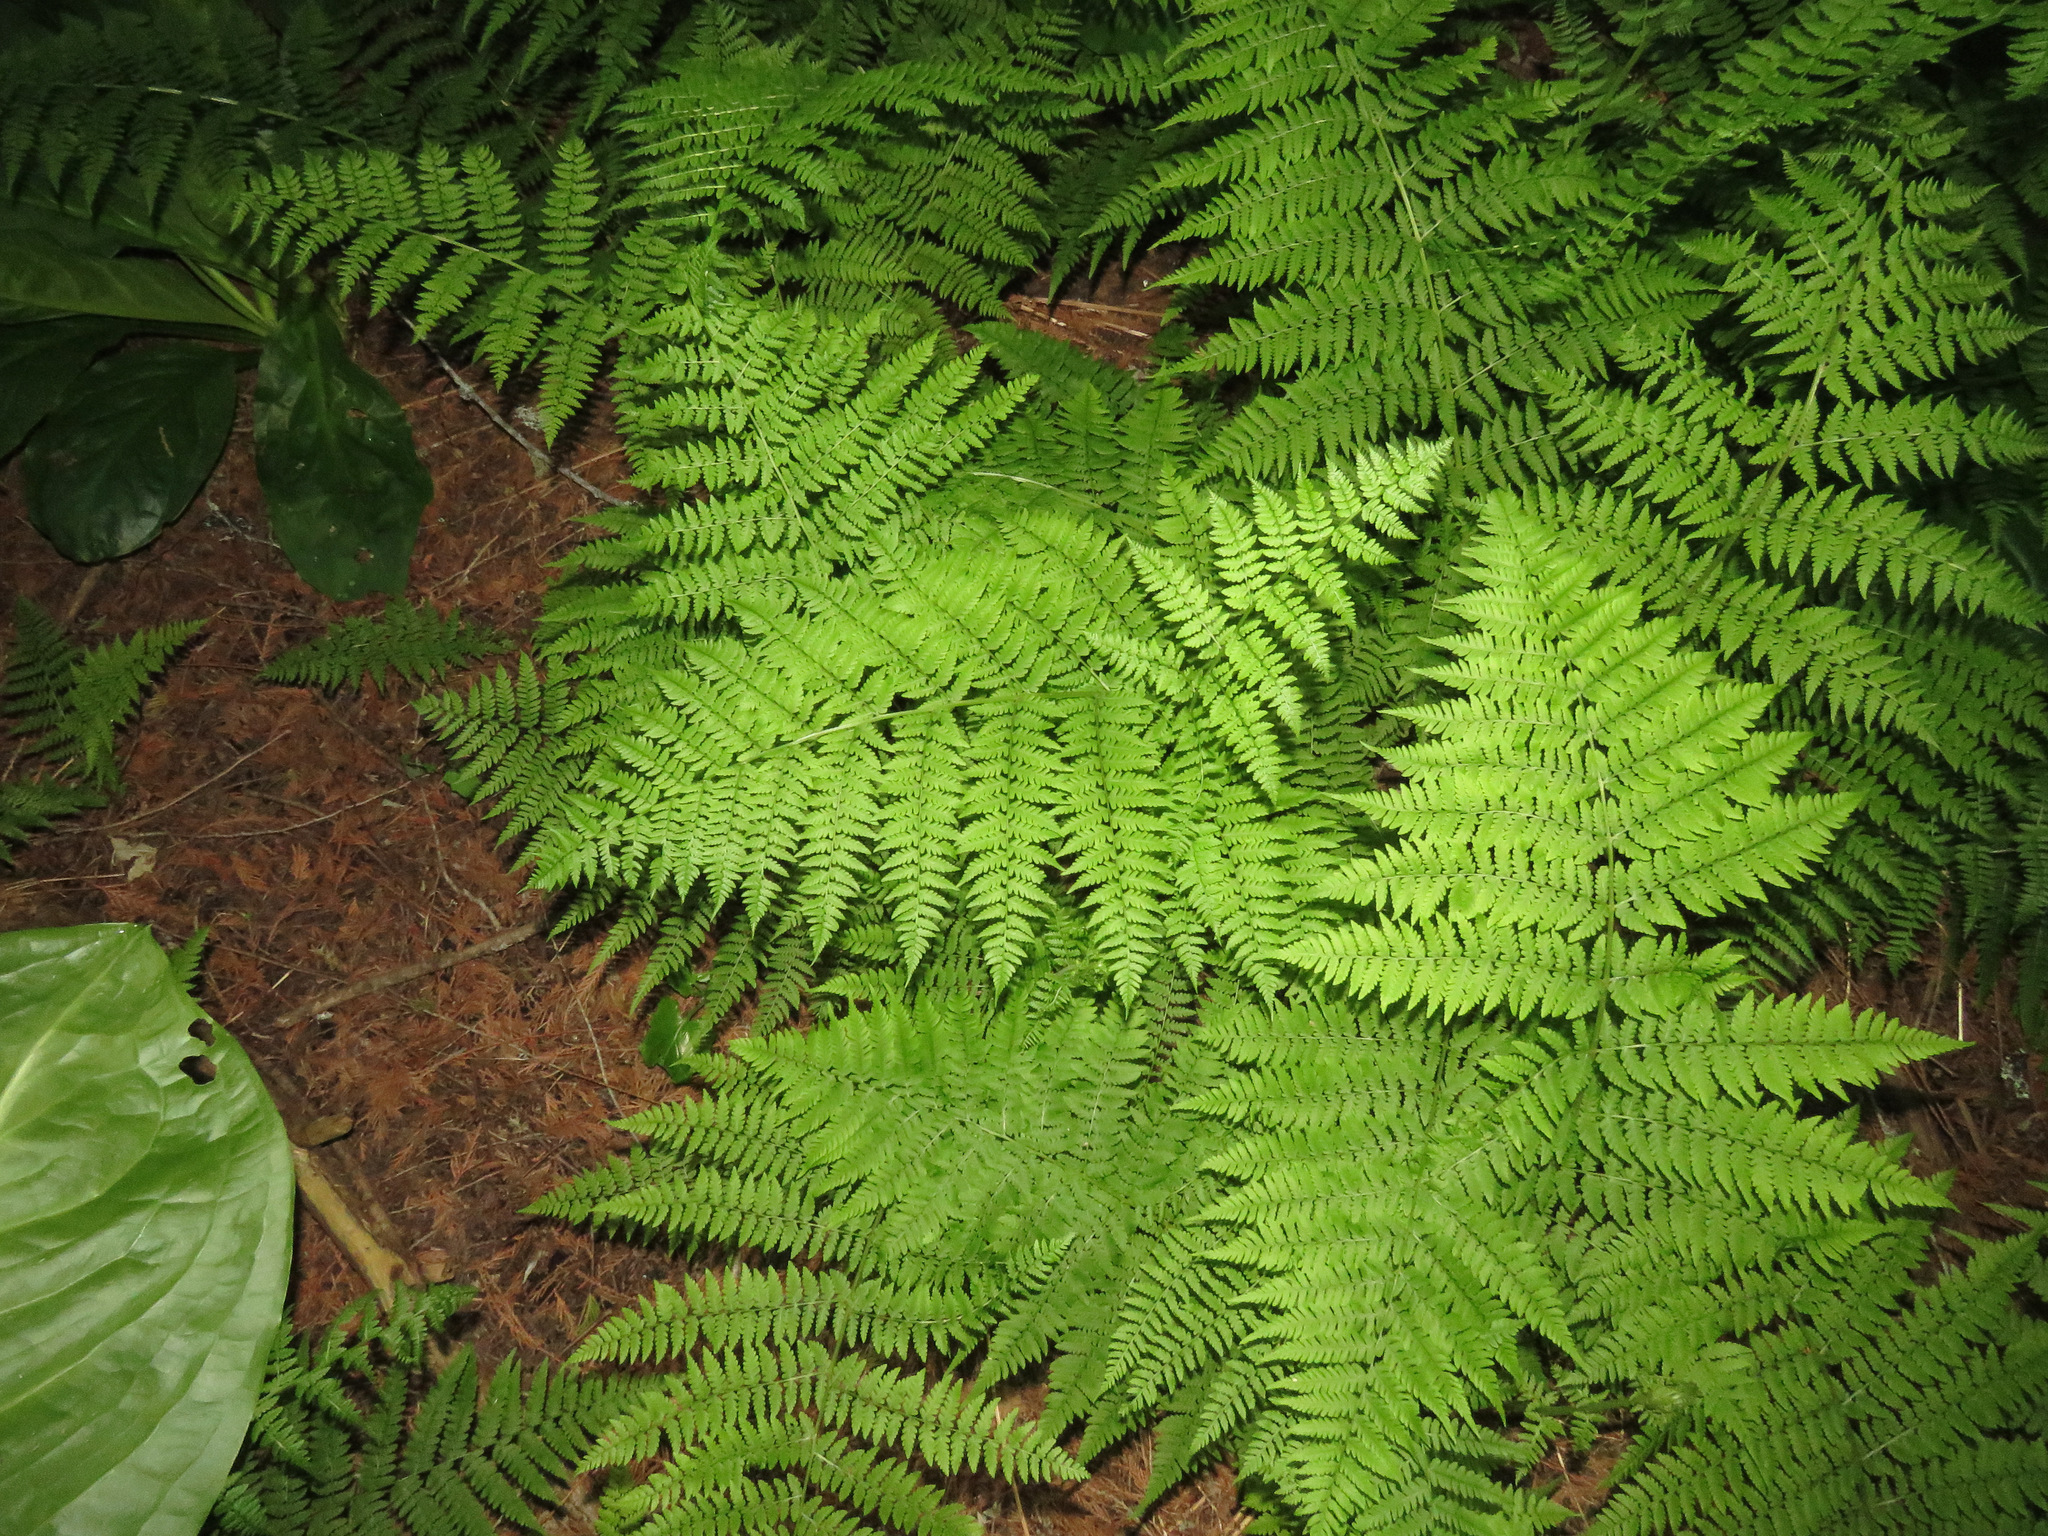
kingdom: Plantae
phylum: Tracheophyta
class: Polypodiopsida
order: Polypodiales
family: Athyriaceae
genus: Athyrium
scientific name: Athyrium filix-femina
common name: Lady fern
